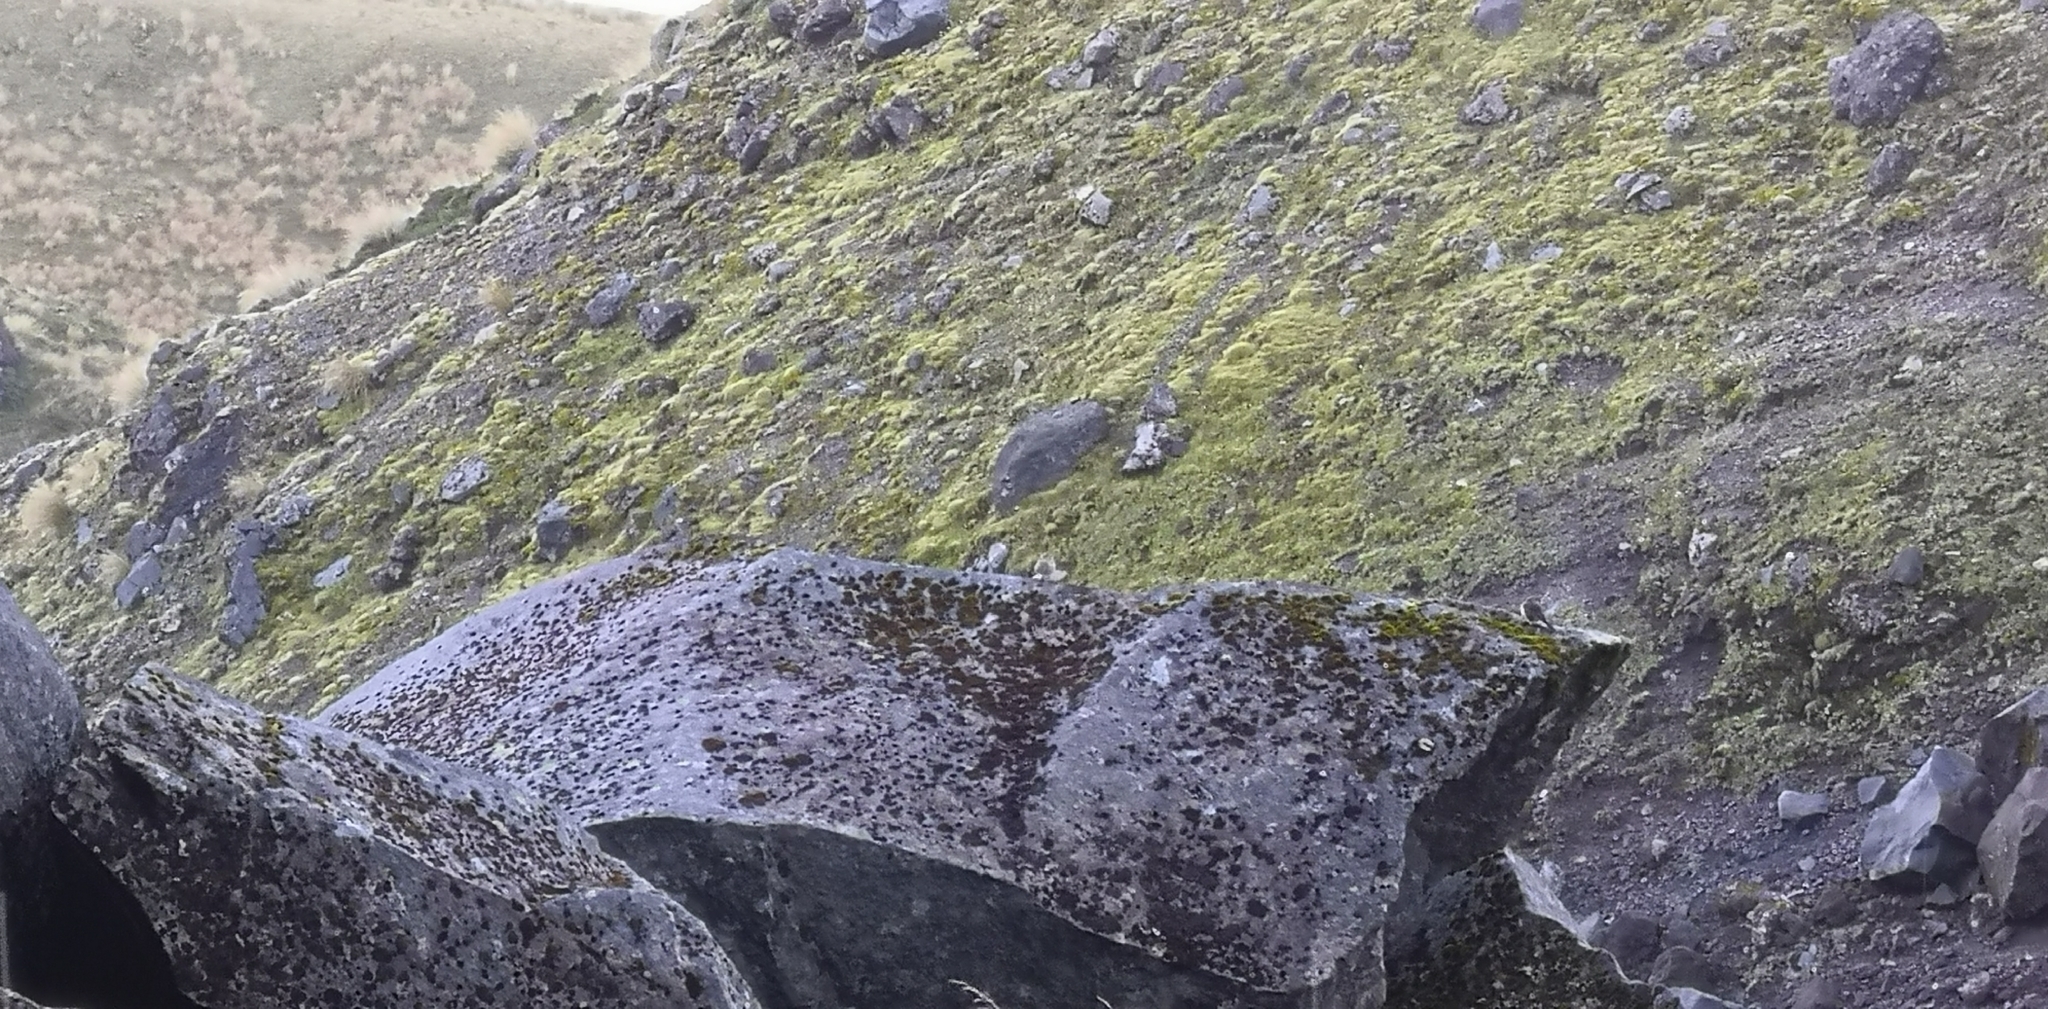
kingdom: Animalia
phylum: Chordata
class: Aves
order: Passeriformes
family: Motacillidae
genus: Anthus
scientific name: Anthus novaeseelandiae
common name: New zealand pipit
